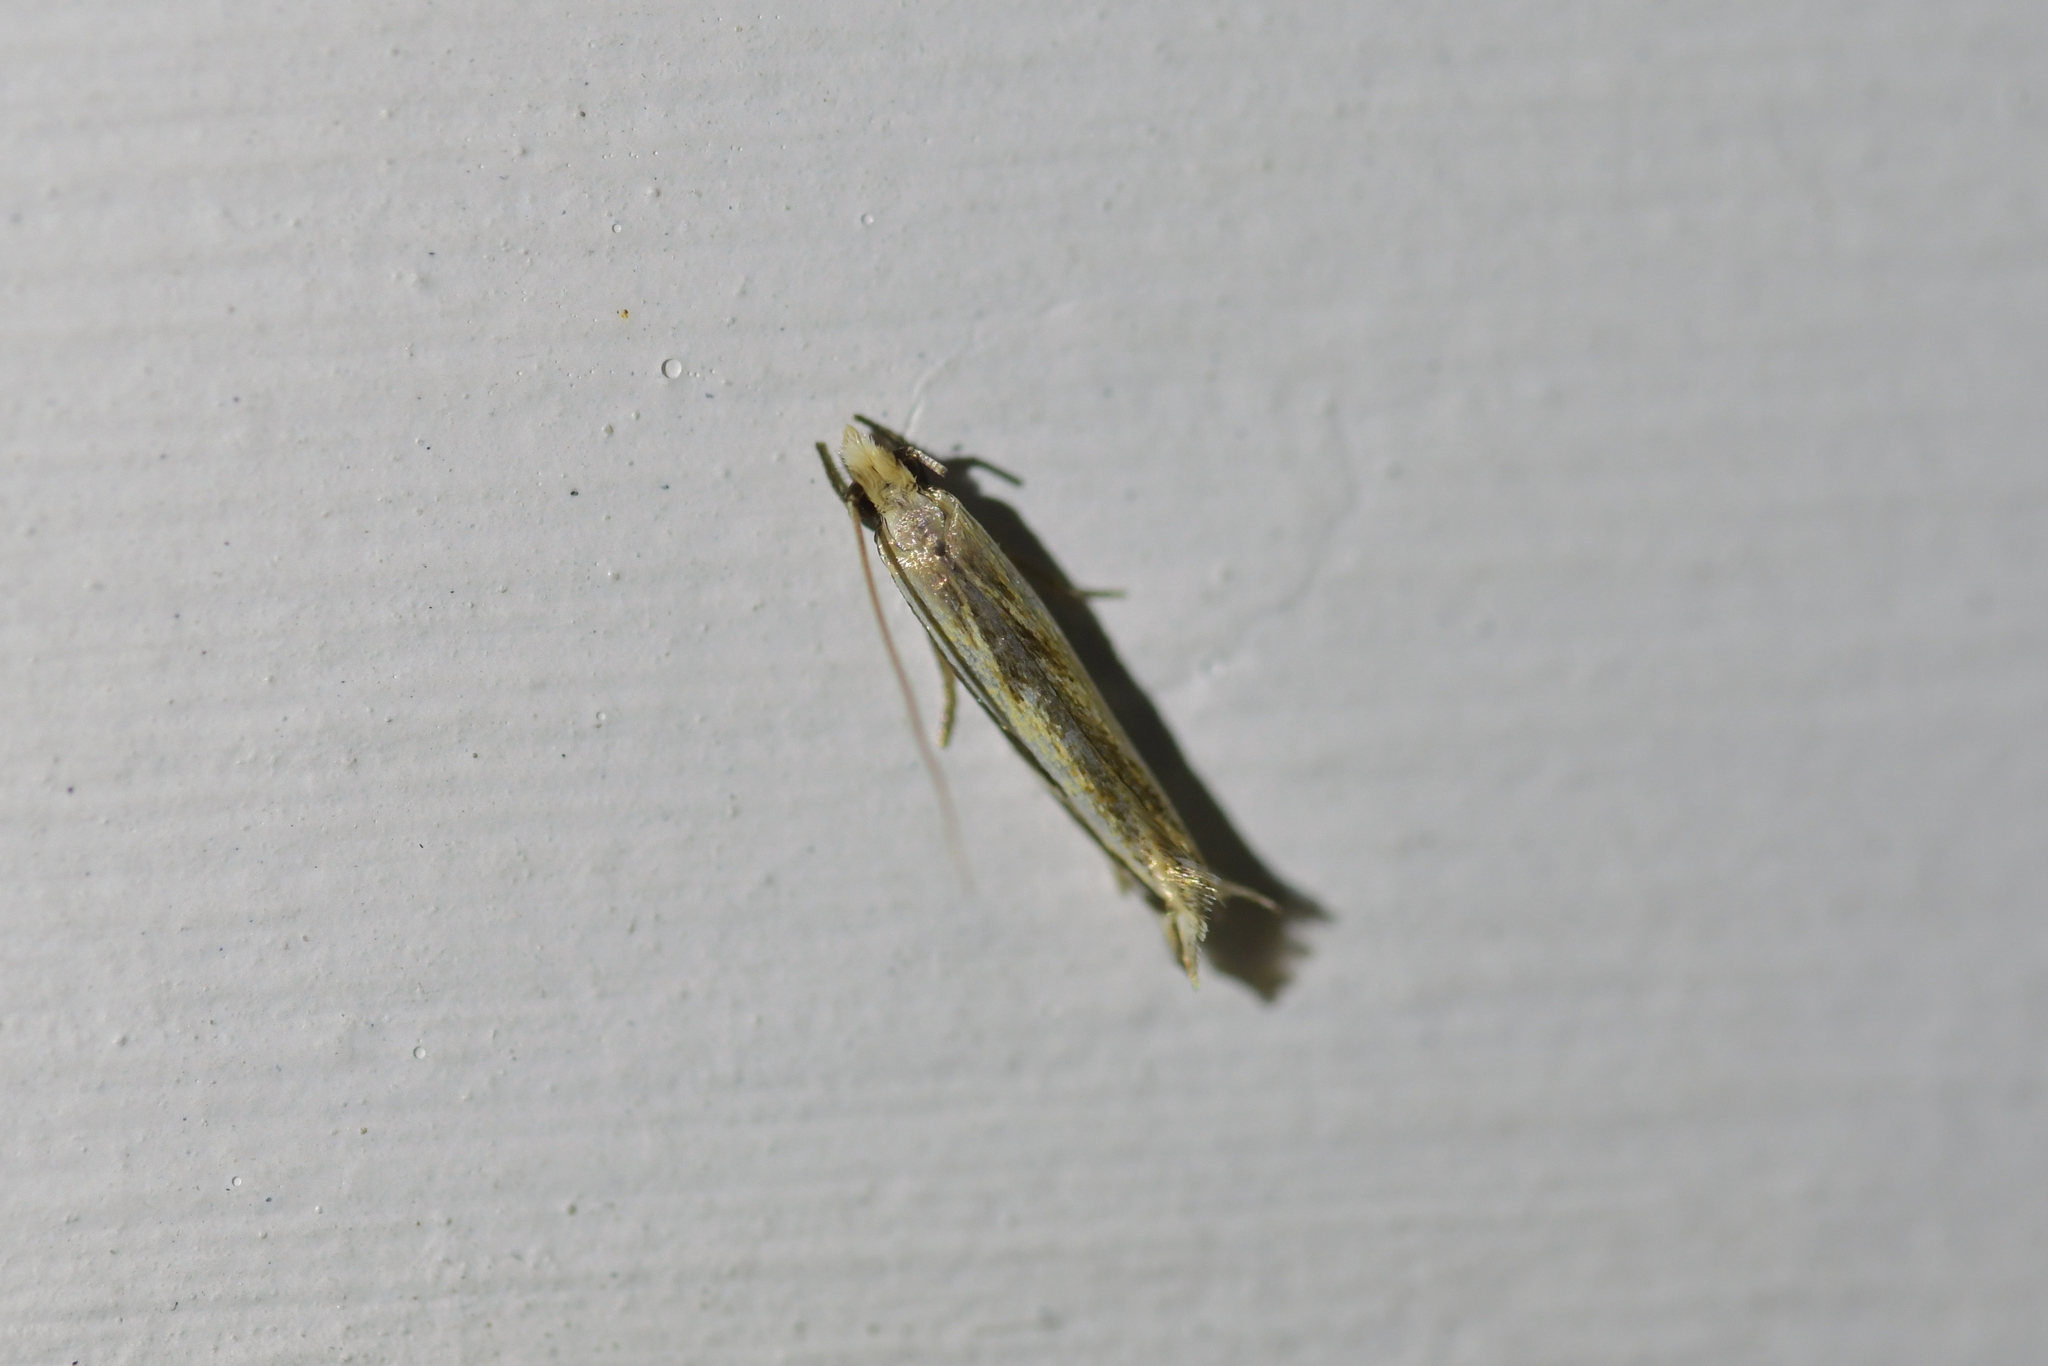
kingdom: Animalia
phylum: Arthropoda
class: Insecta
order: Lepidoptera
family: Tineidae
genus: Erechthias
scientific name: Erechthias terminella
